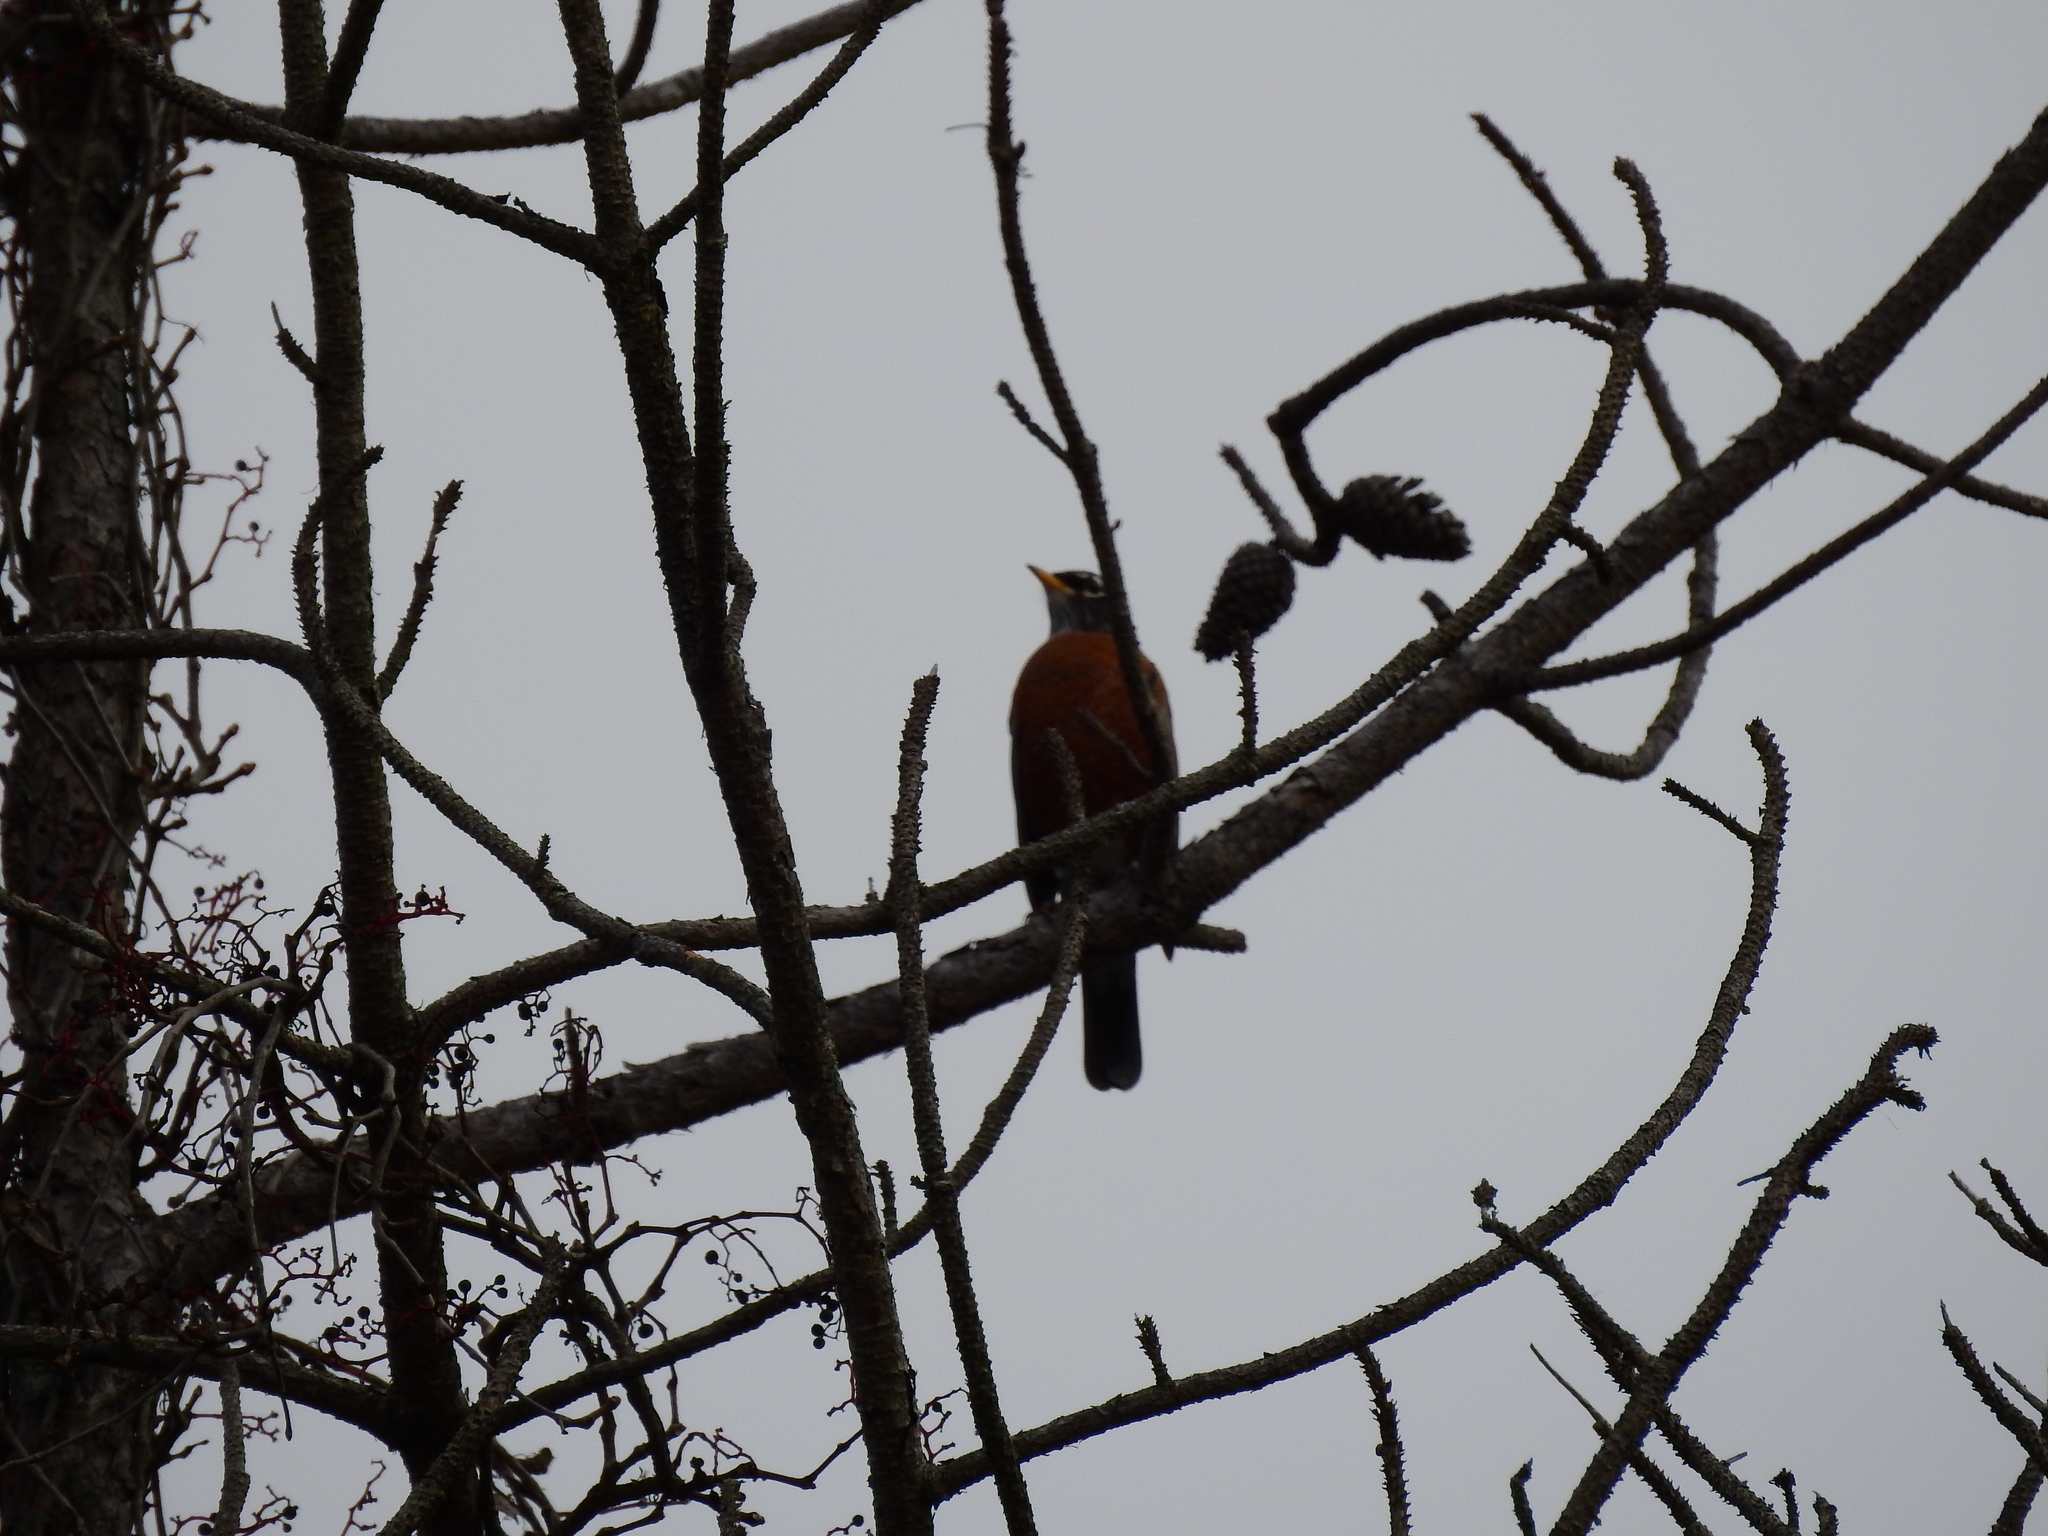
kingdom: Animalia
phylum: Chordata
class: Aves
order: Passeriformes
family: Turdidae
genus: Turdus
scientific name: Turdus migratorius
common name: American robin
